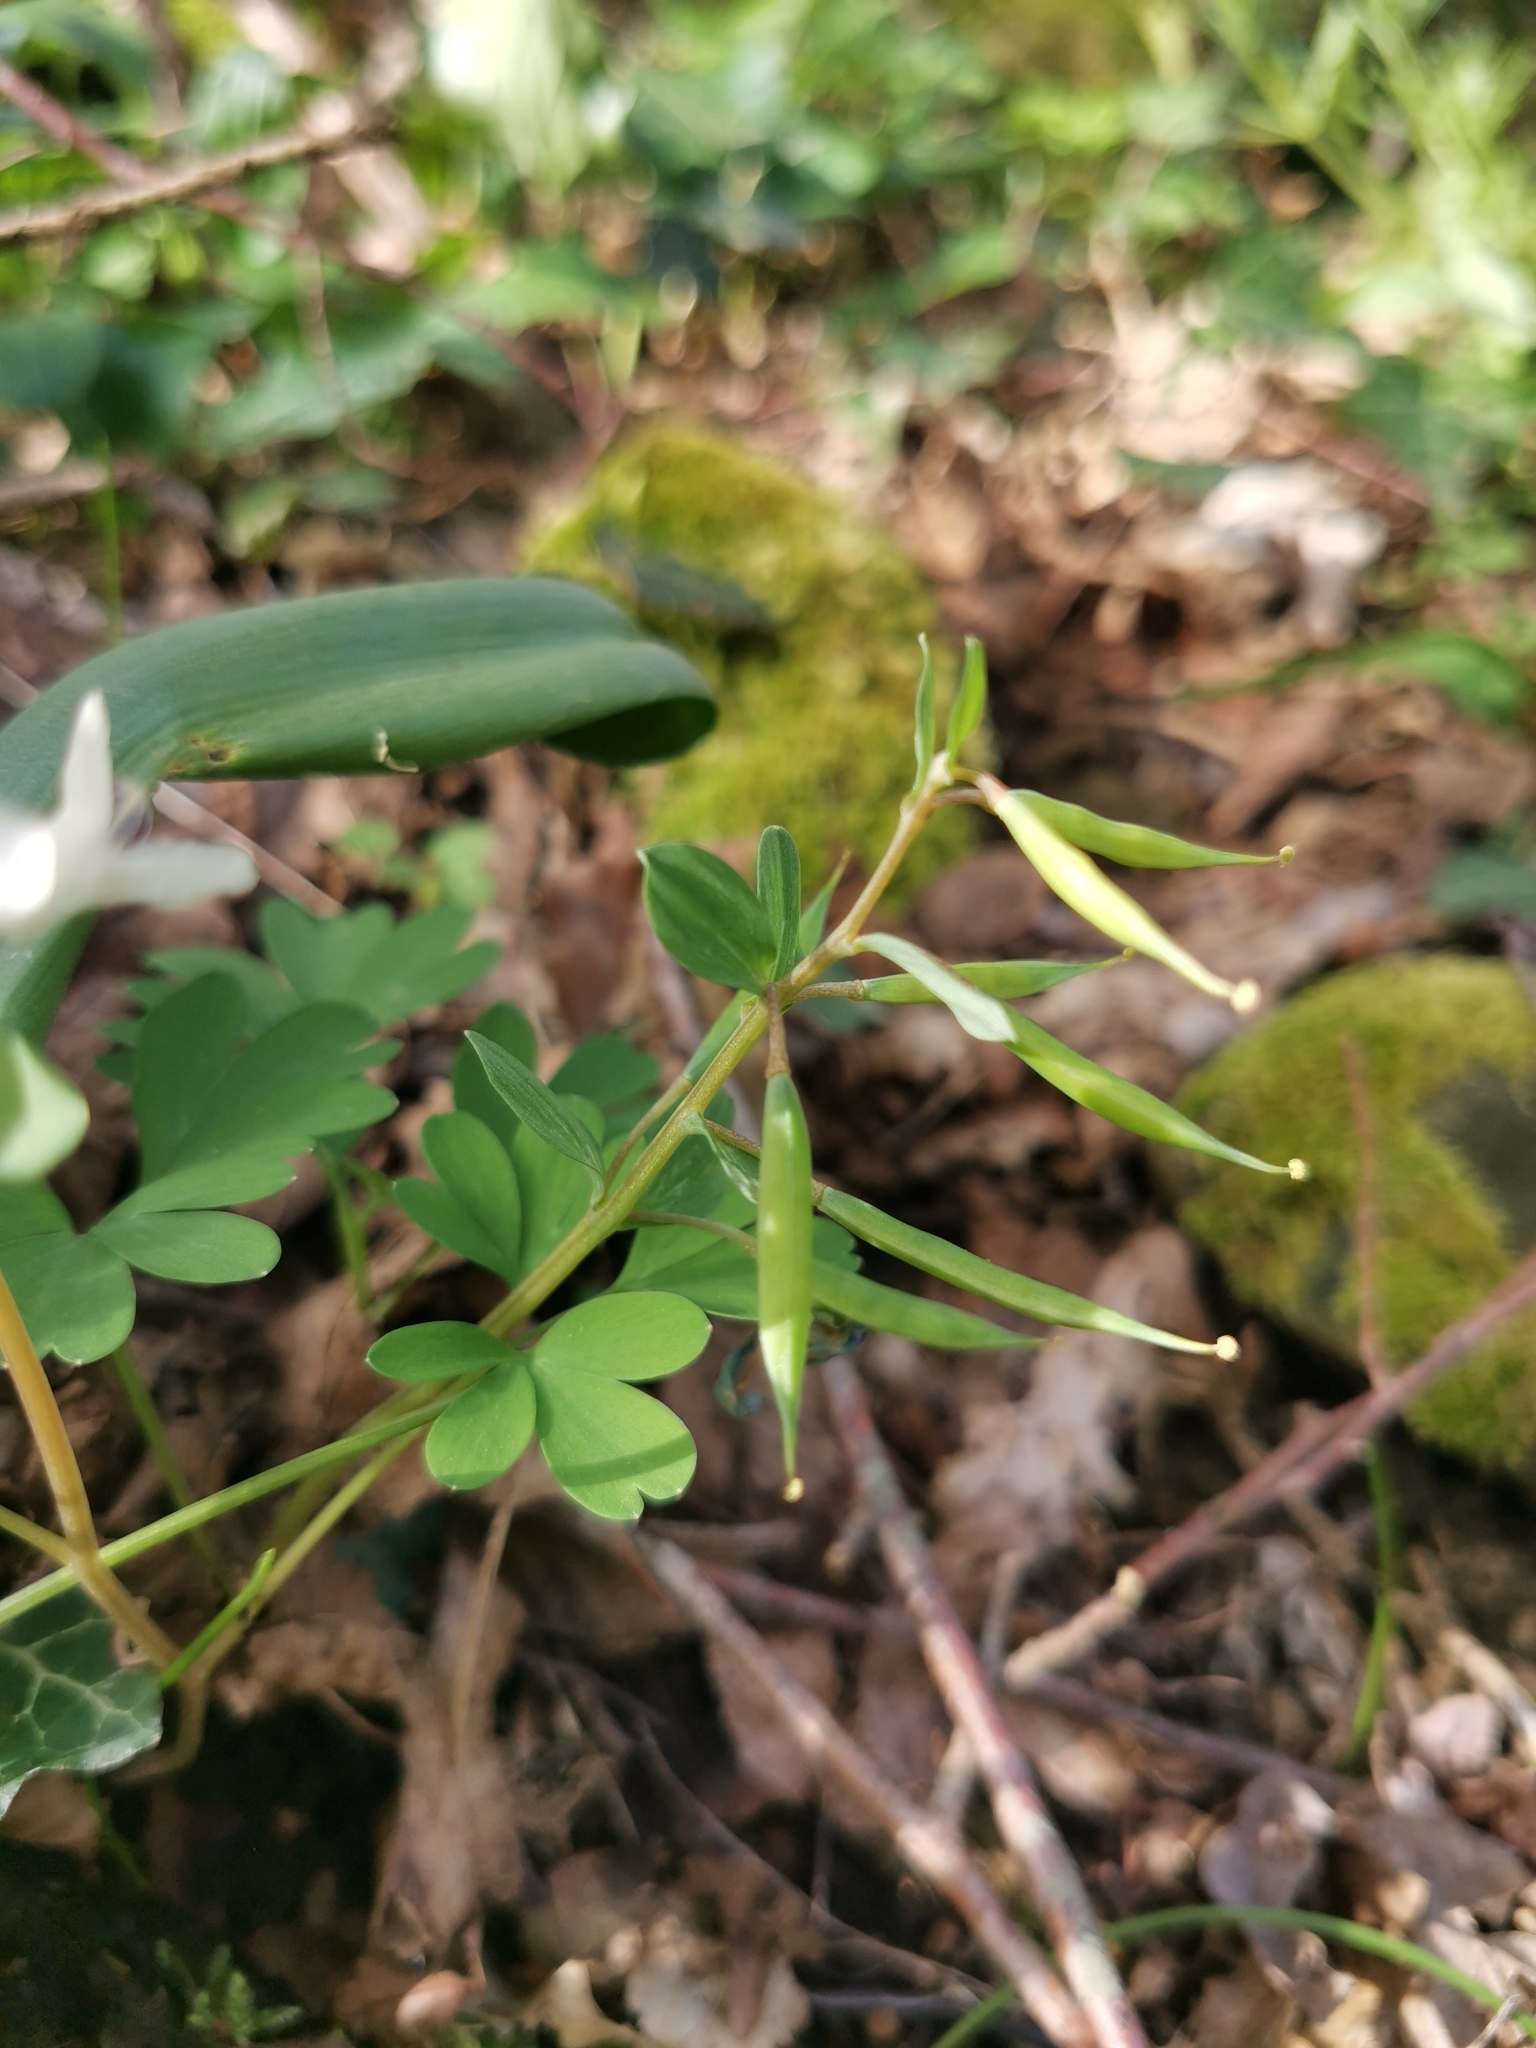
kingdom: Plantae
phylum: Tracheophyta
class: Magnoliopsida
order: Ranunculales
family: Papaveraceae
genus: Corydalis
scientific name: Corydalis caucasica
